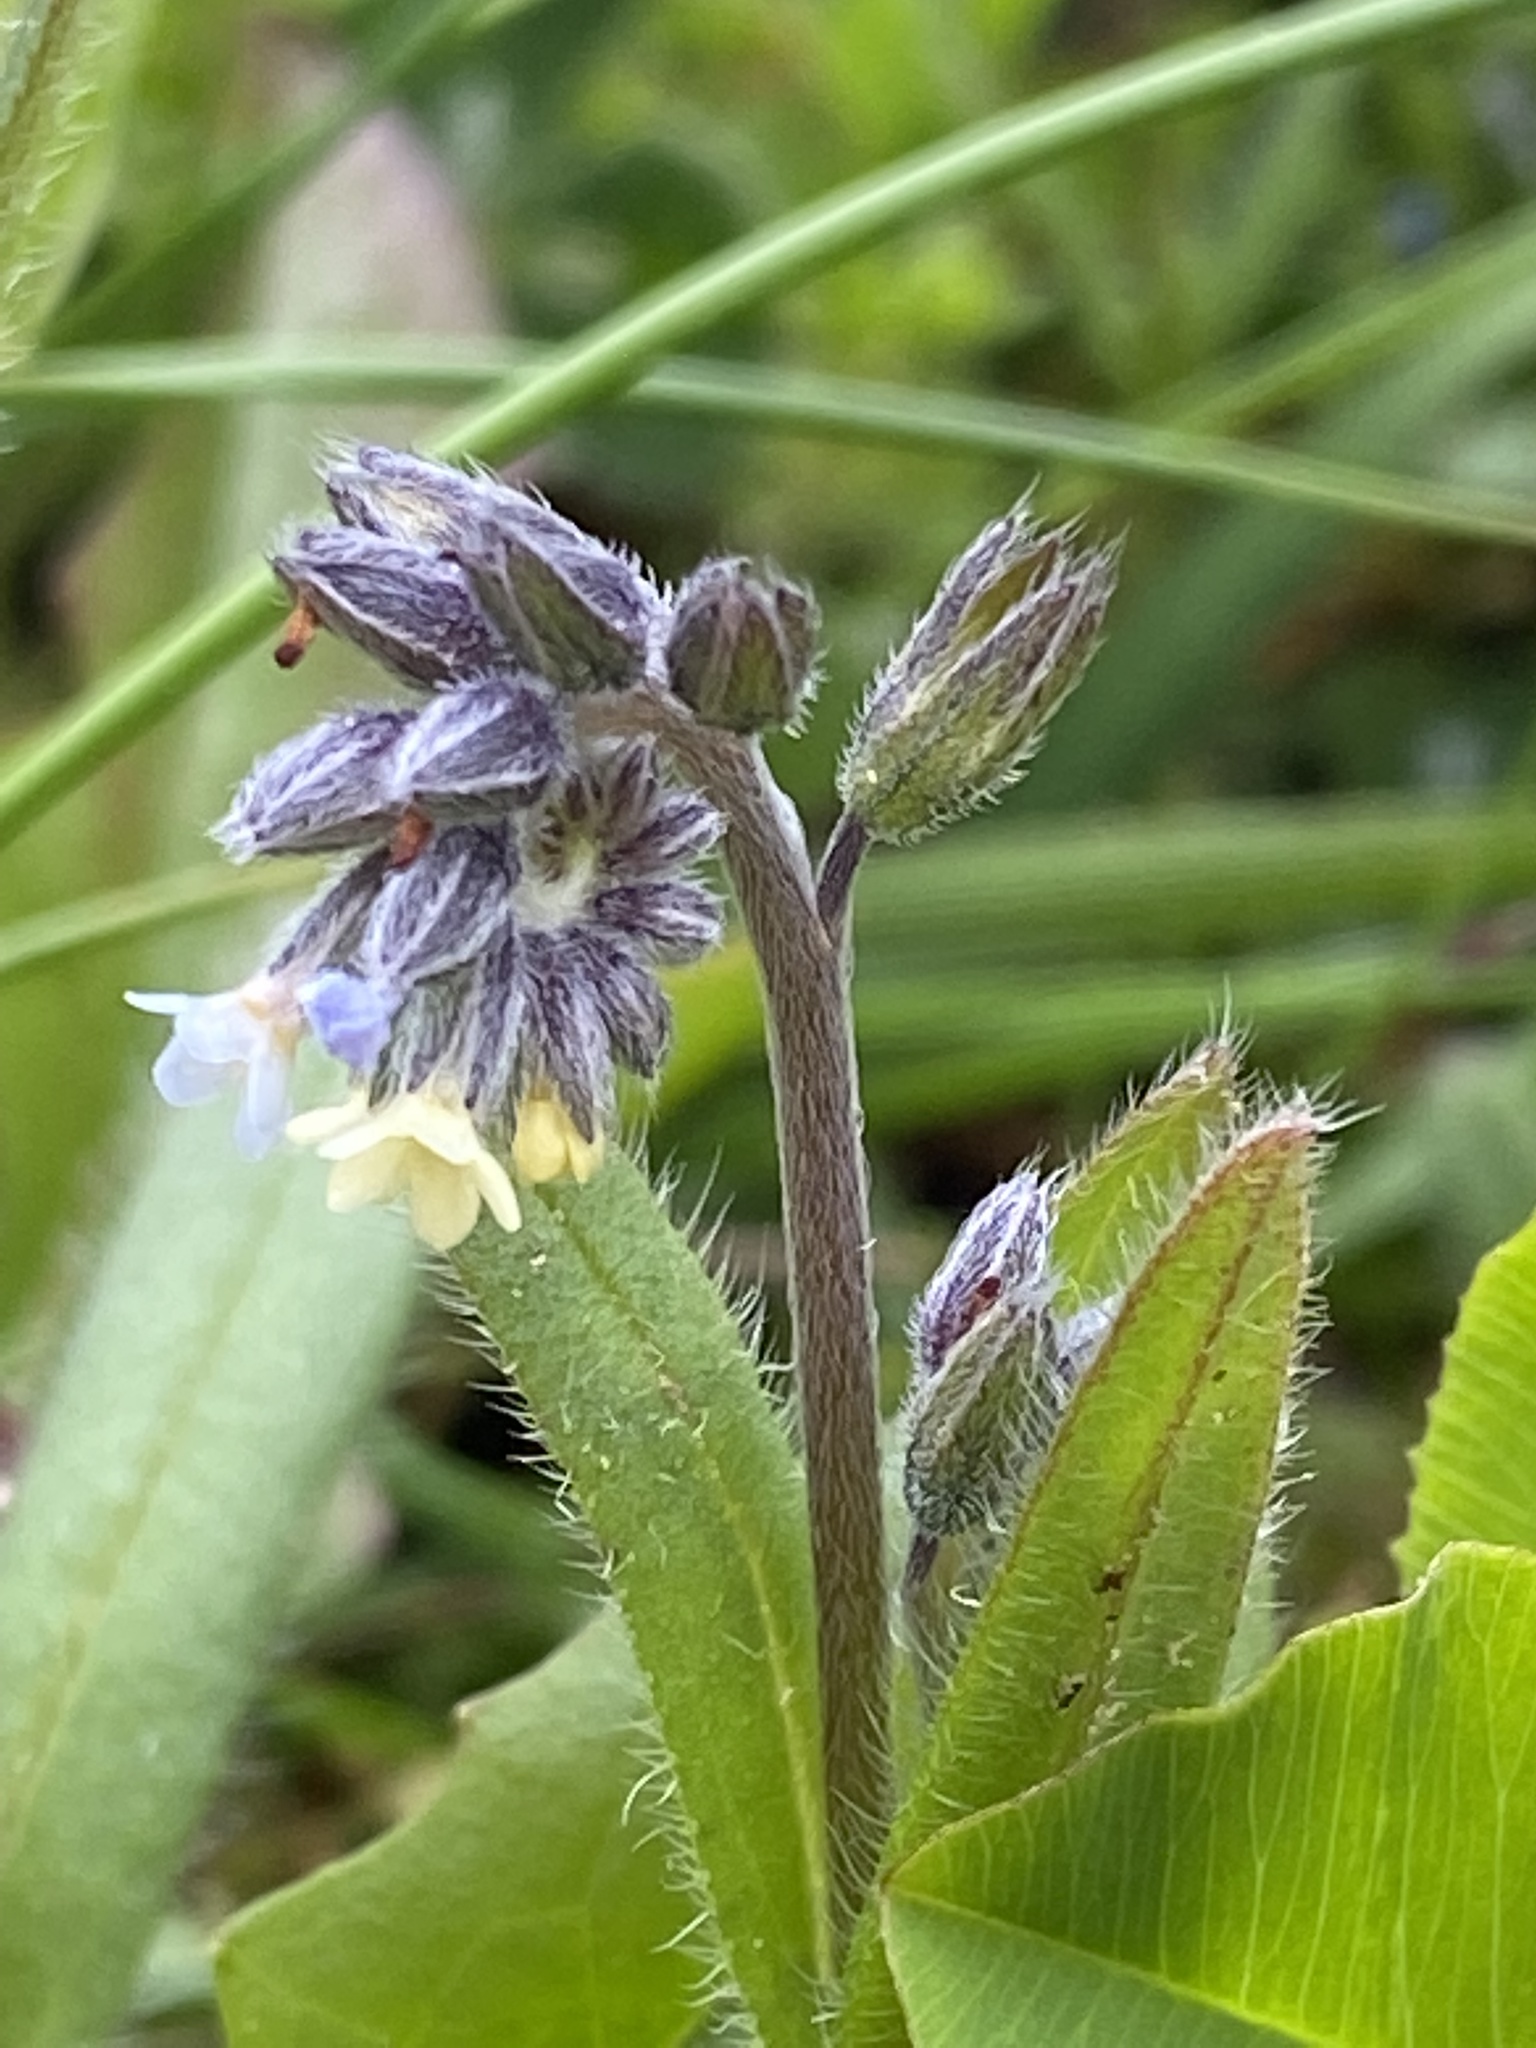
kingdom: Plantae
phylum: Tracheophyta
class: Magnoliopsida
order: Boraginales
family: Boraginaceae
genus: Myosotis
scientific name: Myosotis discolor
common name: Changing forget-me-not
